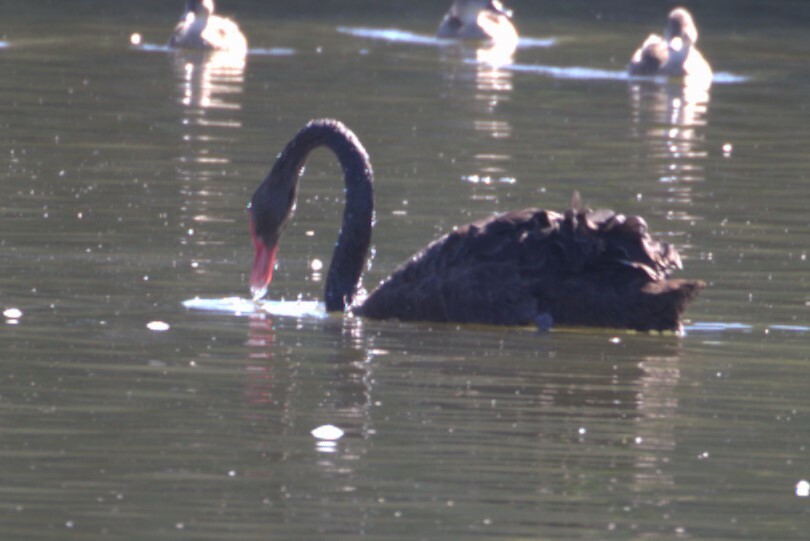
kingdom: Animalia
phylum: Chordata
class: Aves
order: Anseriformes
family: Anatidae
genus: Cygnus
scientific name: Cygnus atratus
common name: Black swan
